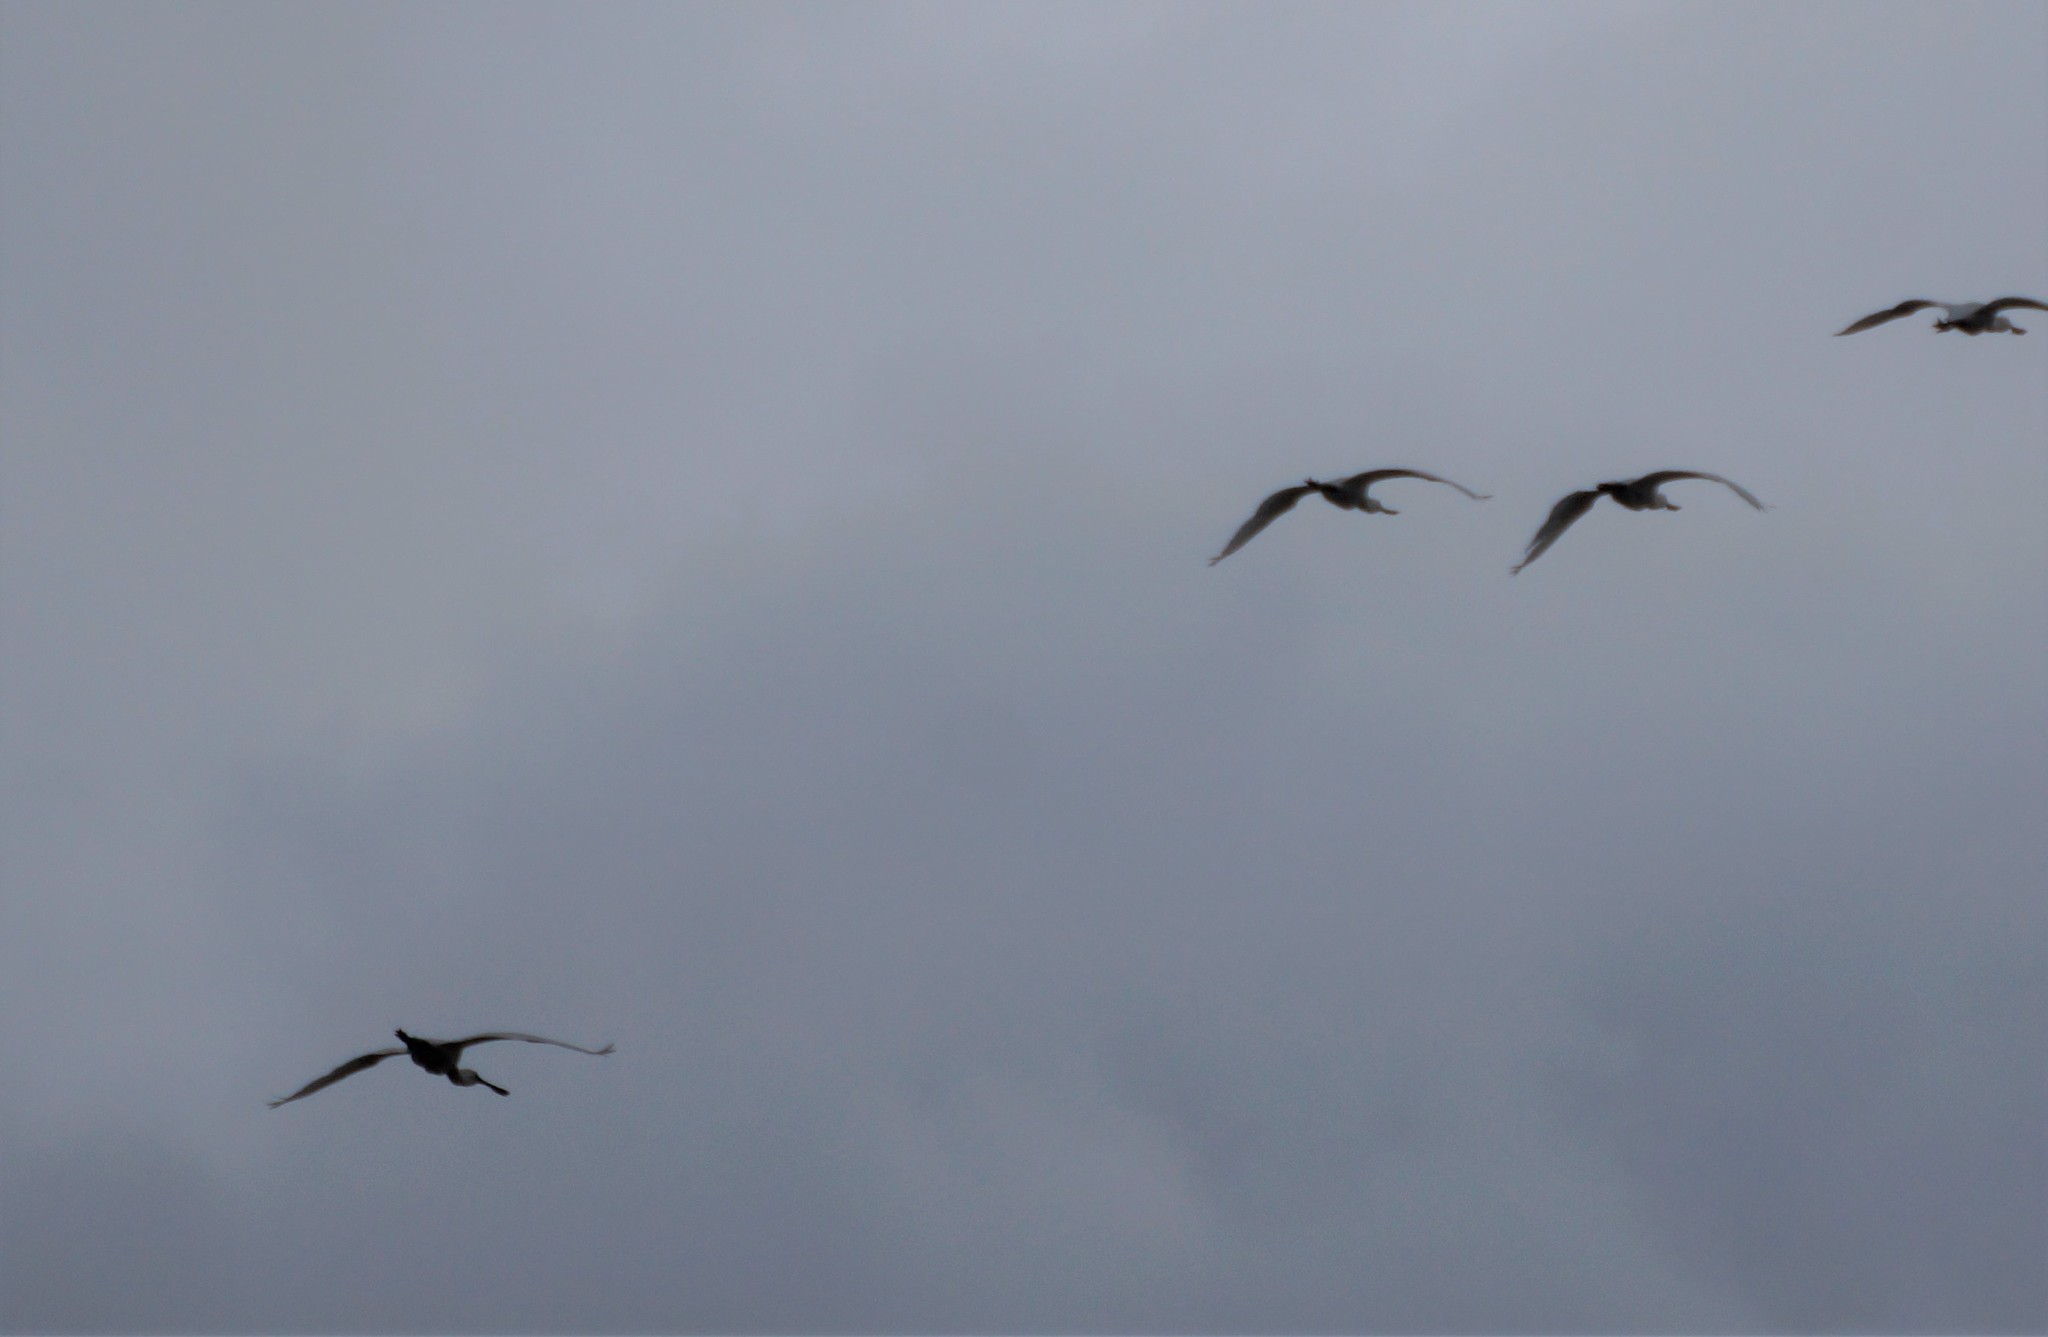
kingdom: Animalia
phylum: Chordata
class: Aves
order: Pelecaniformes
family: Threskiornithidae
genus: Platalea
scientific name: Platalea regia
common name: Royal spoonbill
